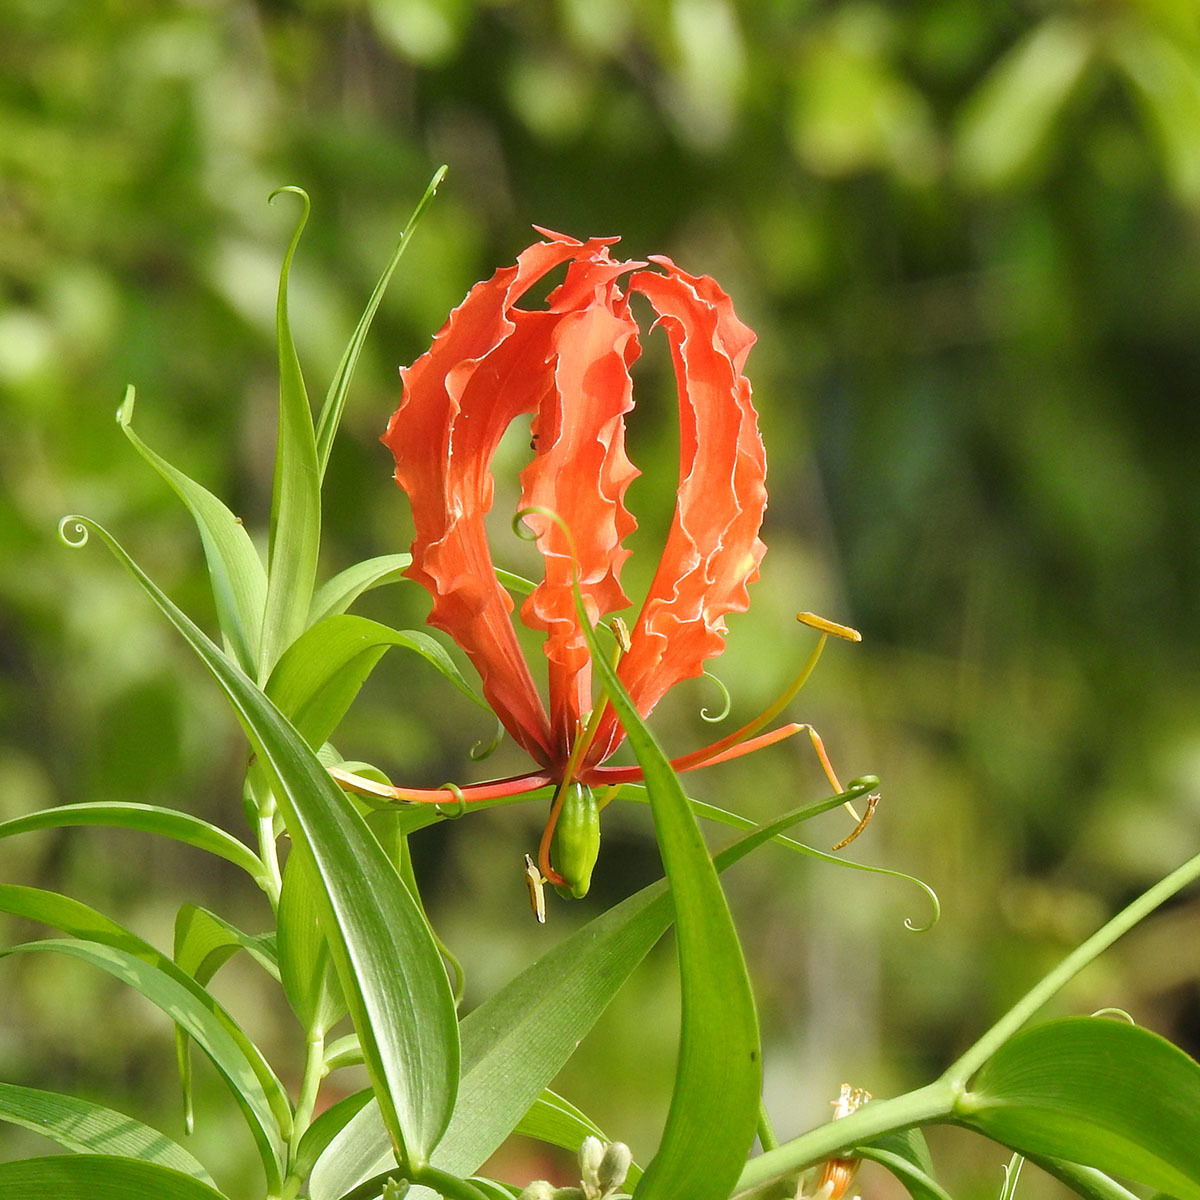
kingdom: Plantae
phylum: Tracheophyta
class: Liliopsida
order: Liliales
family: Colchicaceae
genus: Gloriosa
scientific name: Gloriosa superba
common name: Flame lily
